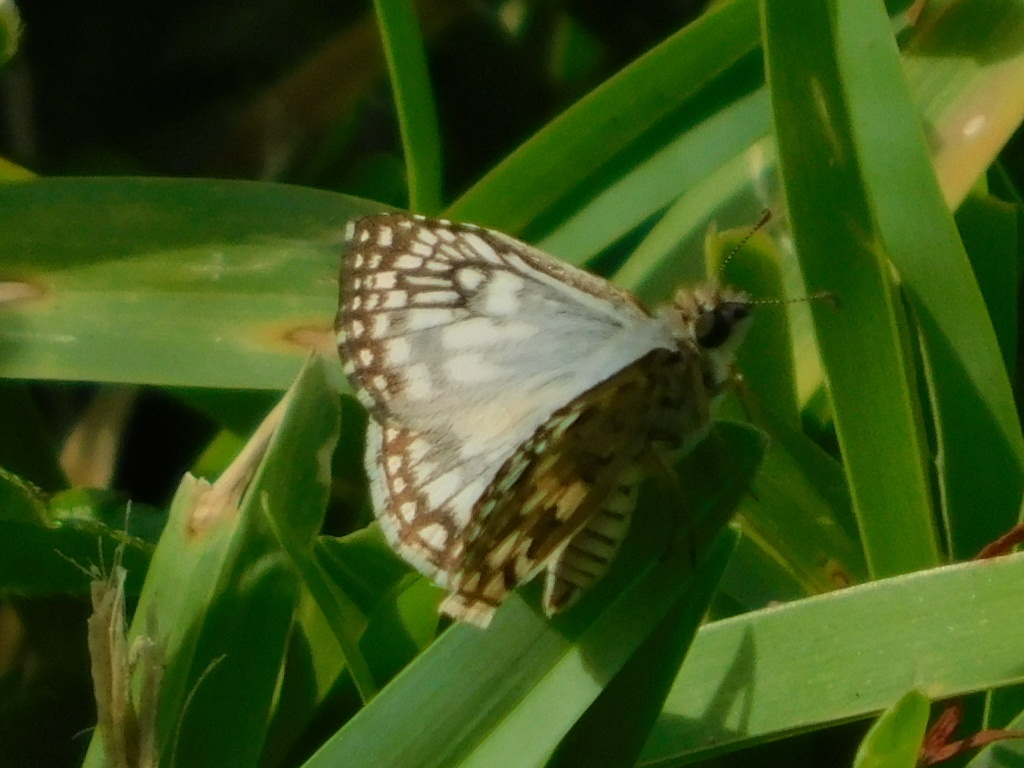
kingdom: Animalia
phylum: Arthropoda
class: Insecta
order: Lepidoptera
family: Hesperiidae
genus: Pyrgus
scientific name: Pyrgus oileus
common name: Tropical checkered-skipper
